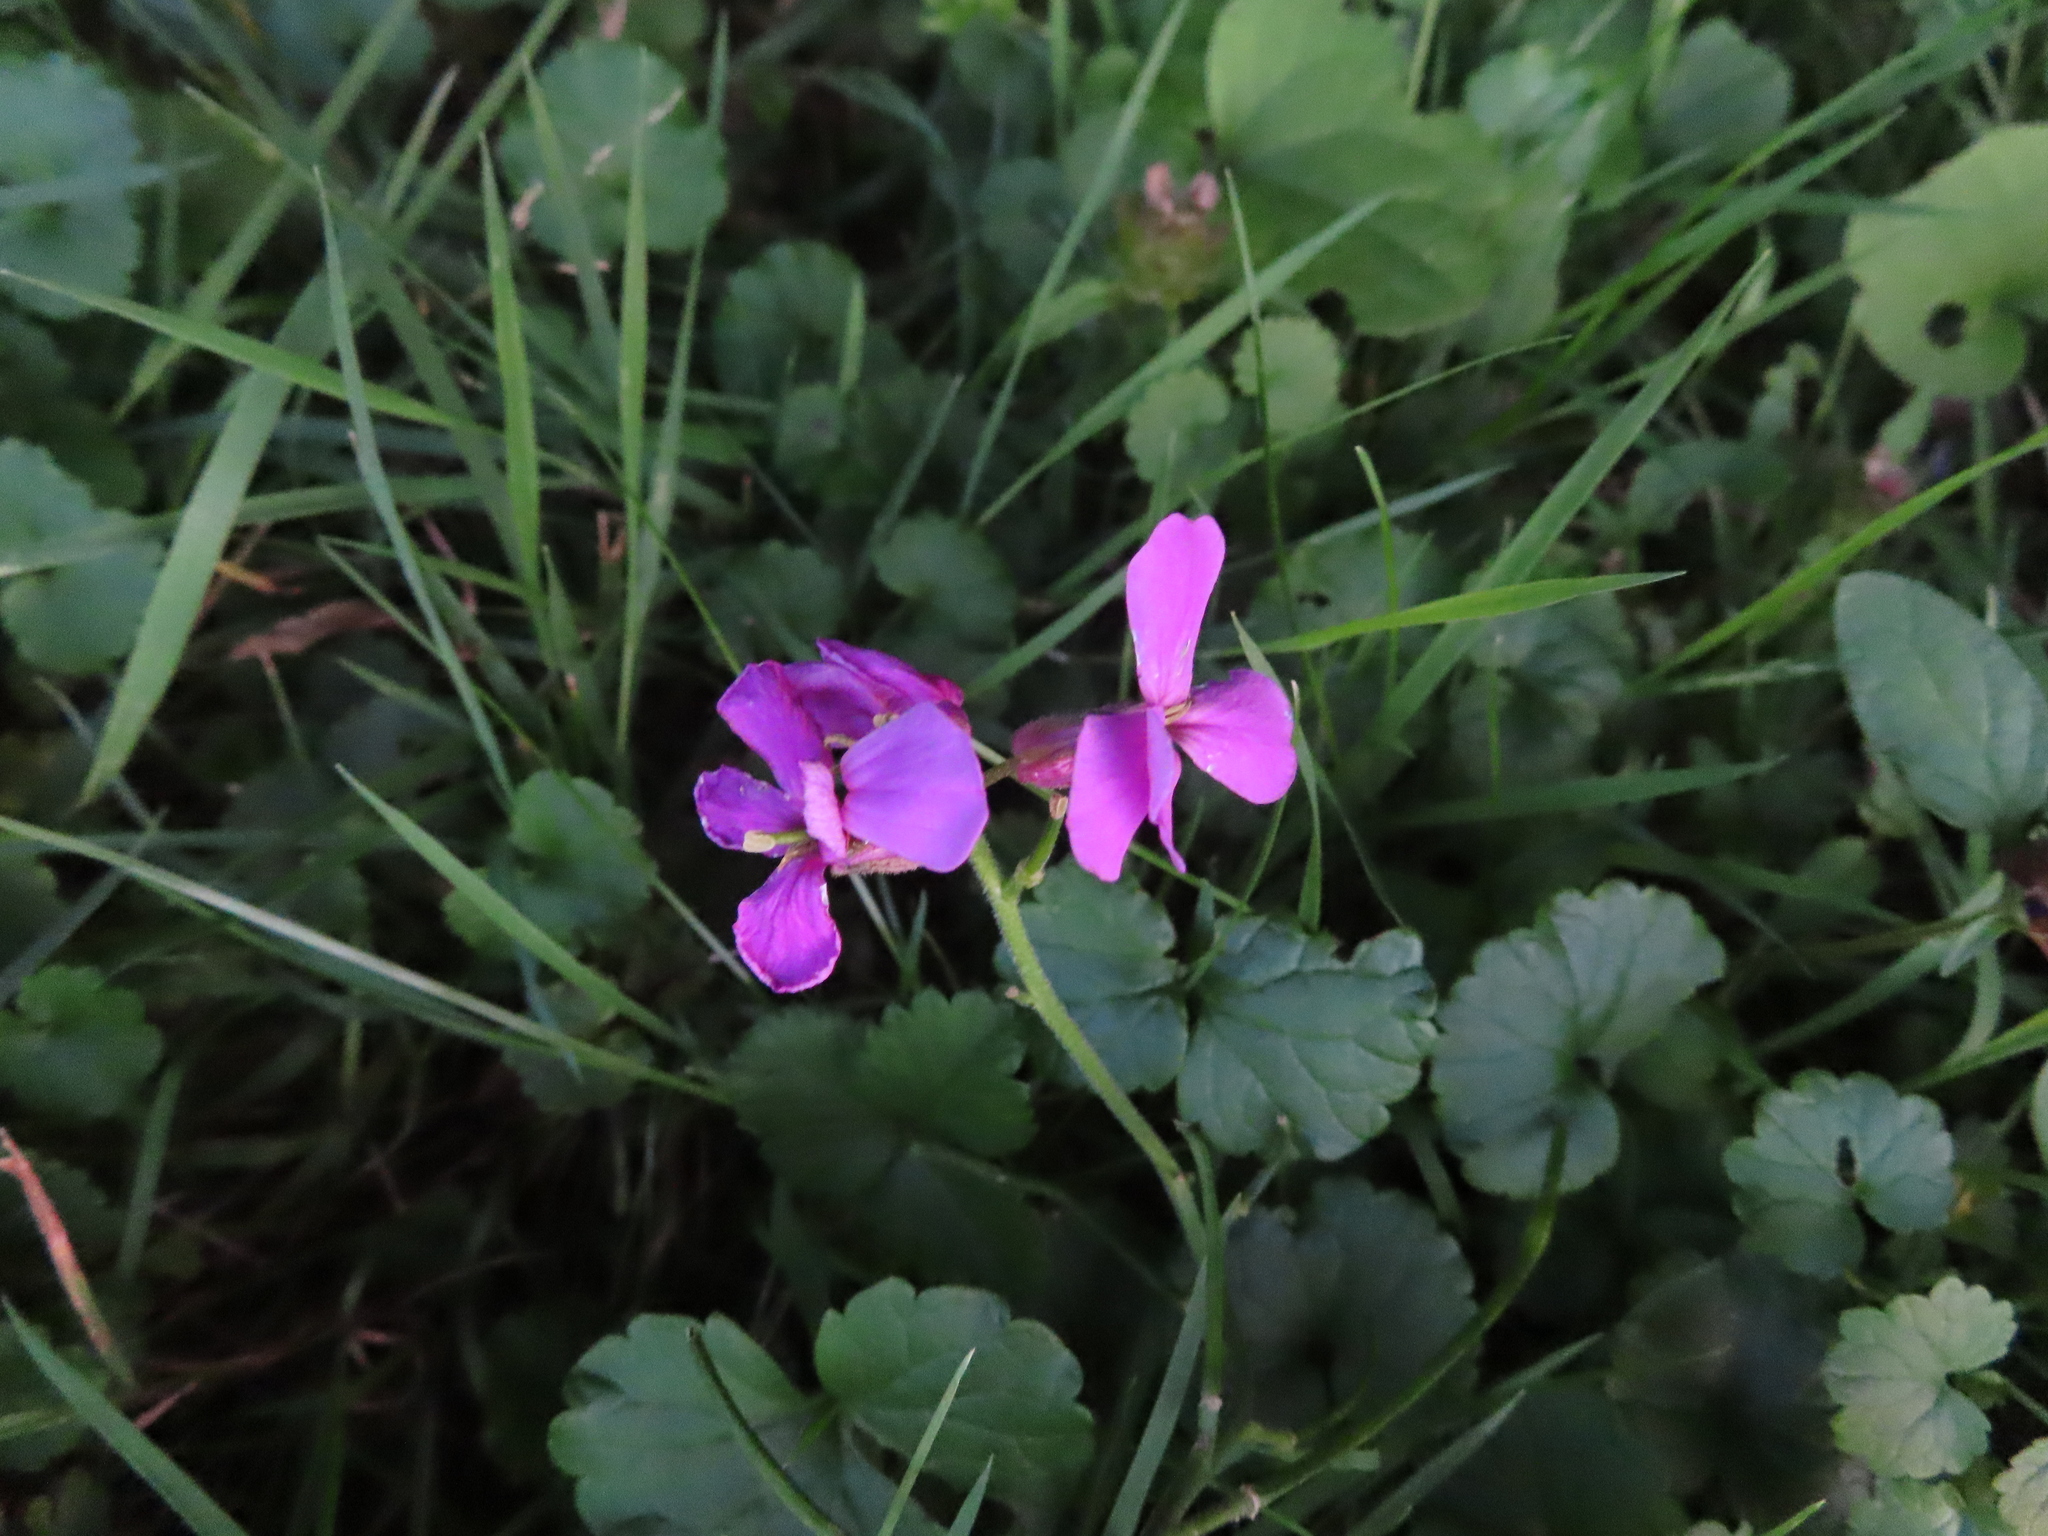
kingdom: Plantae
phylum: Tracheophyta
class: Magnoliopsida
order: Brassicales
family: Brassicaceae
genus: Hesperis
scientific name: Hesperis matronalis
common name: Dame's-violet
